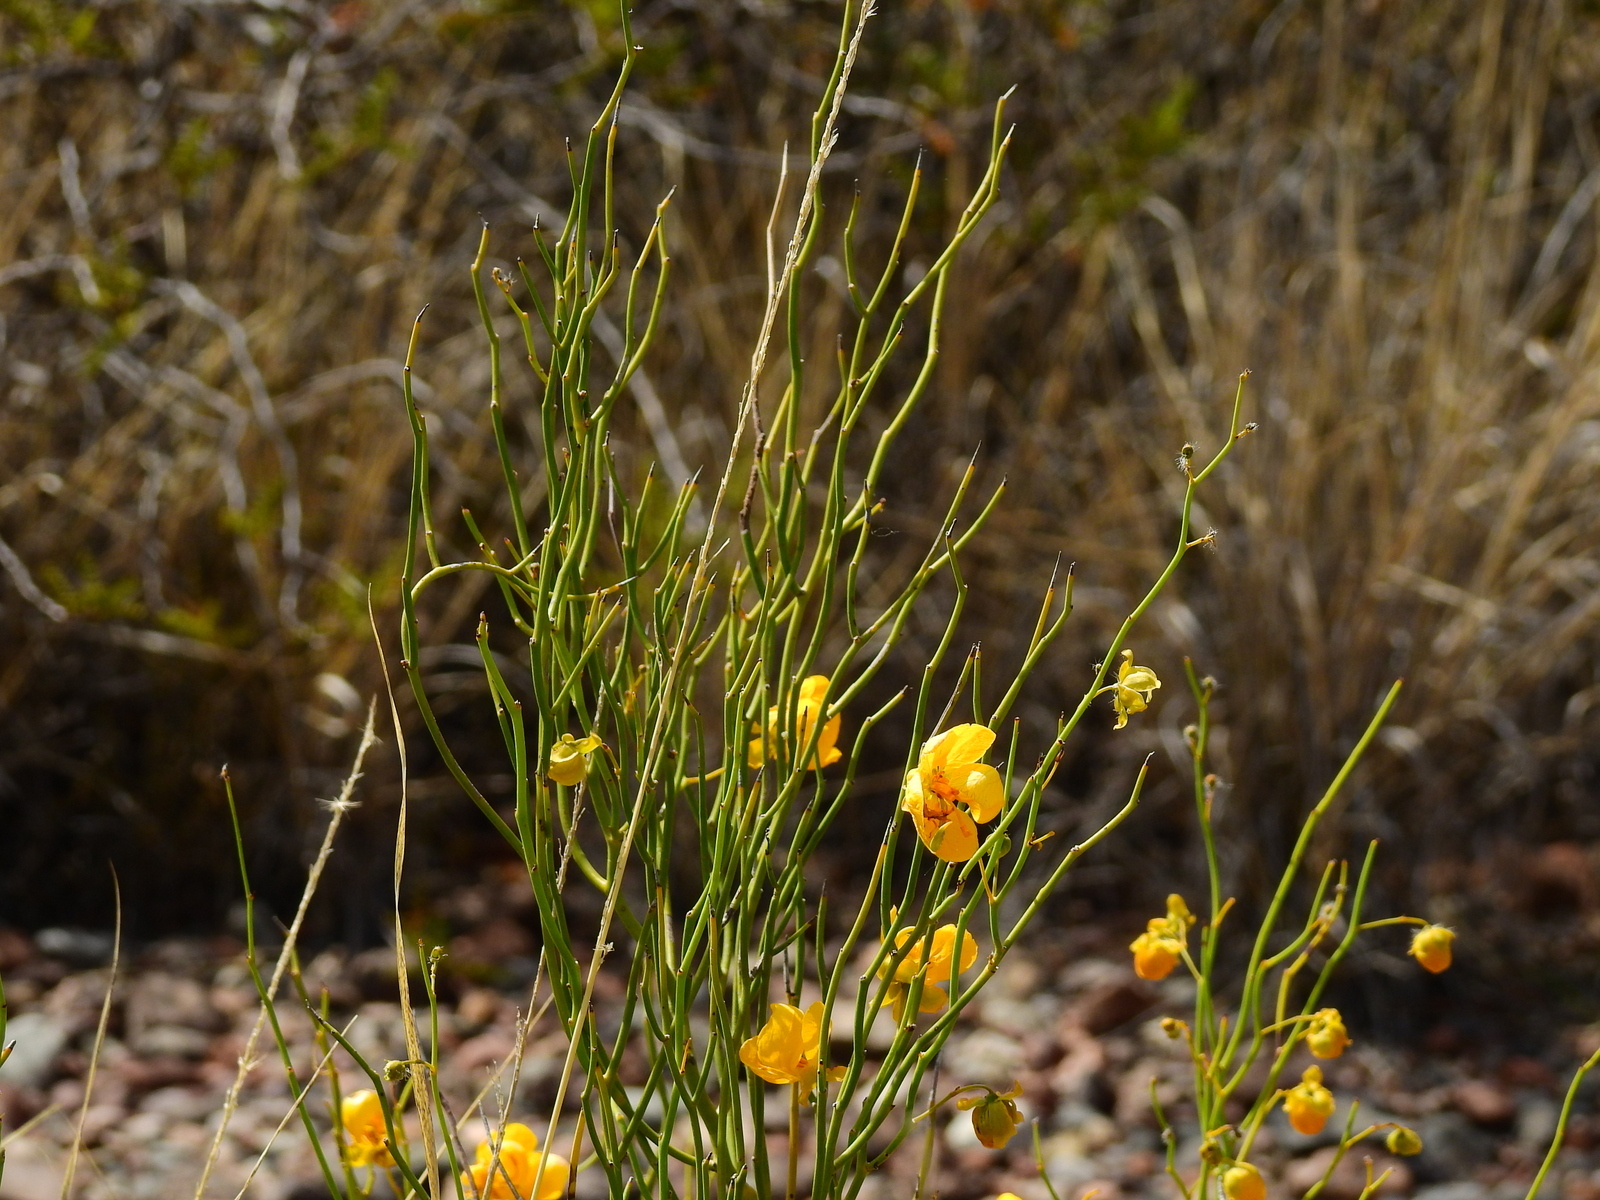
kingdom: Plantae
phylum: Tracheophyta
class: Magnoliopsida
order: Fabales
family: Fabaceae
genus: Senna
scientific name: Senna aphylla
